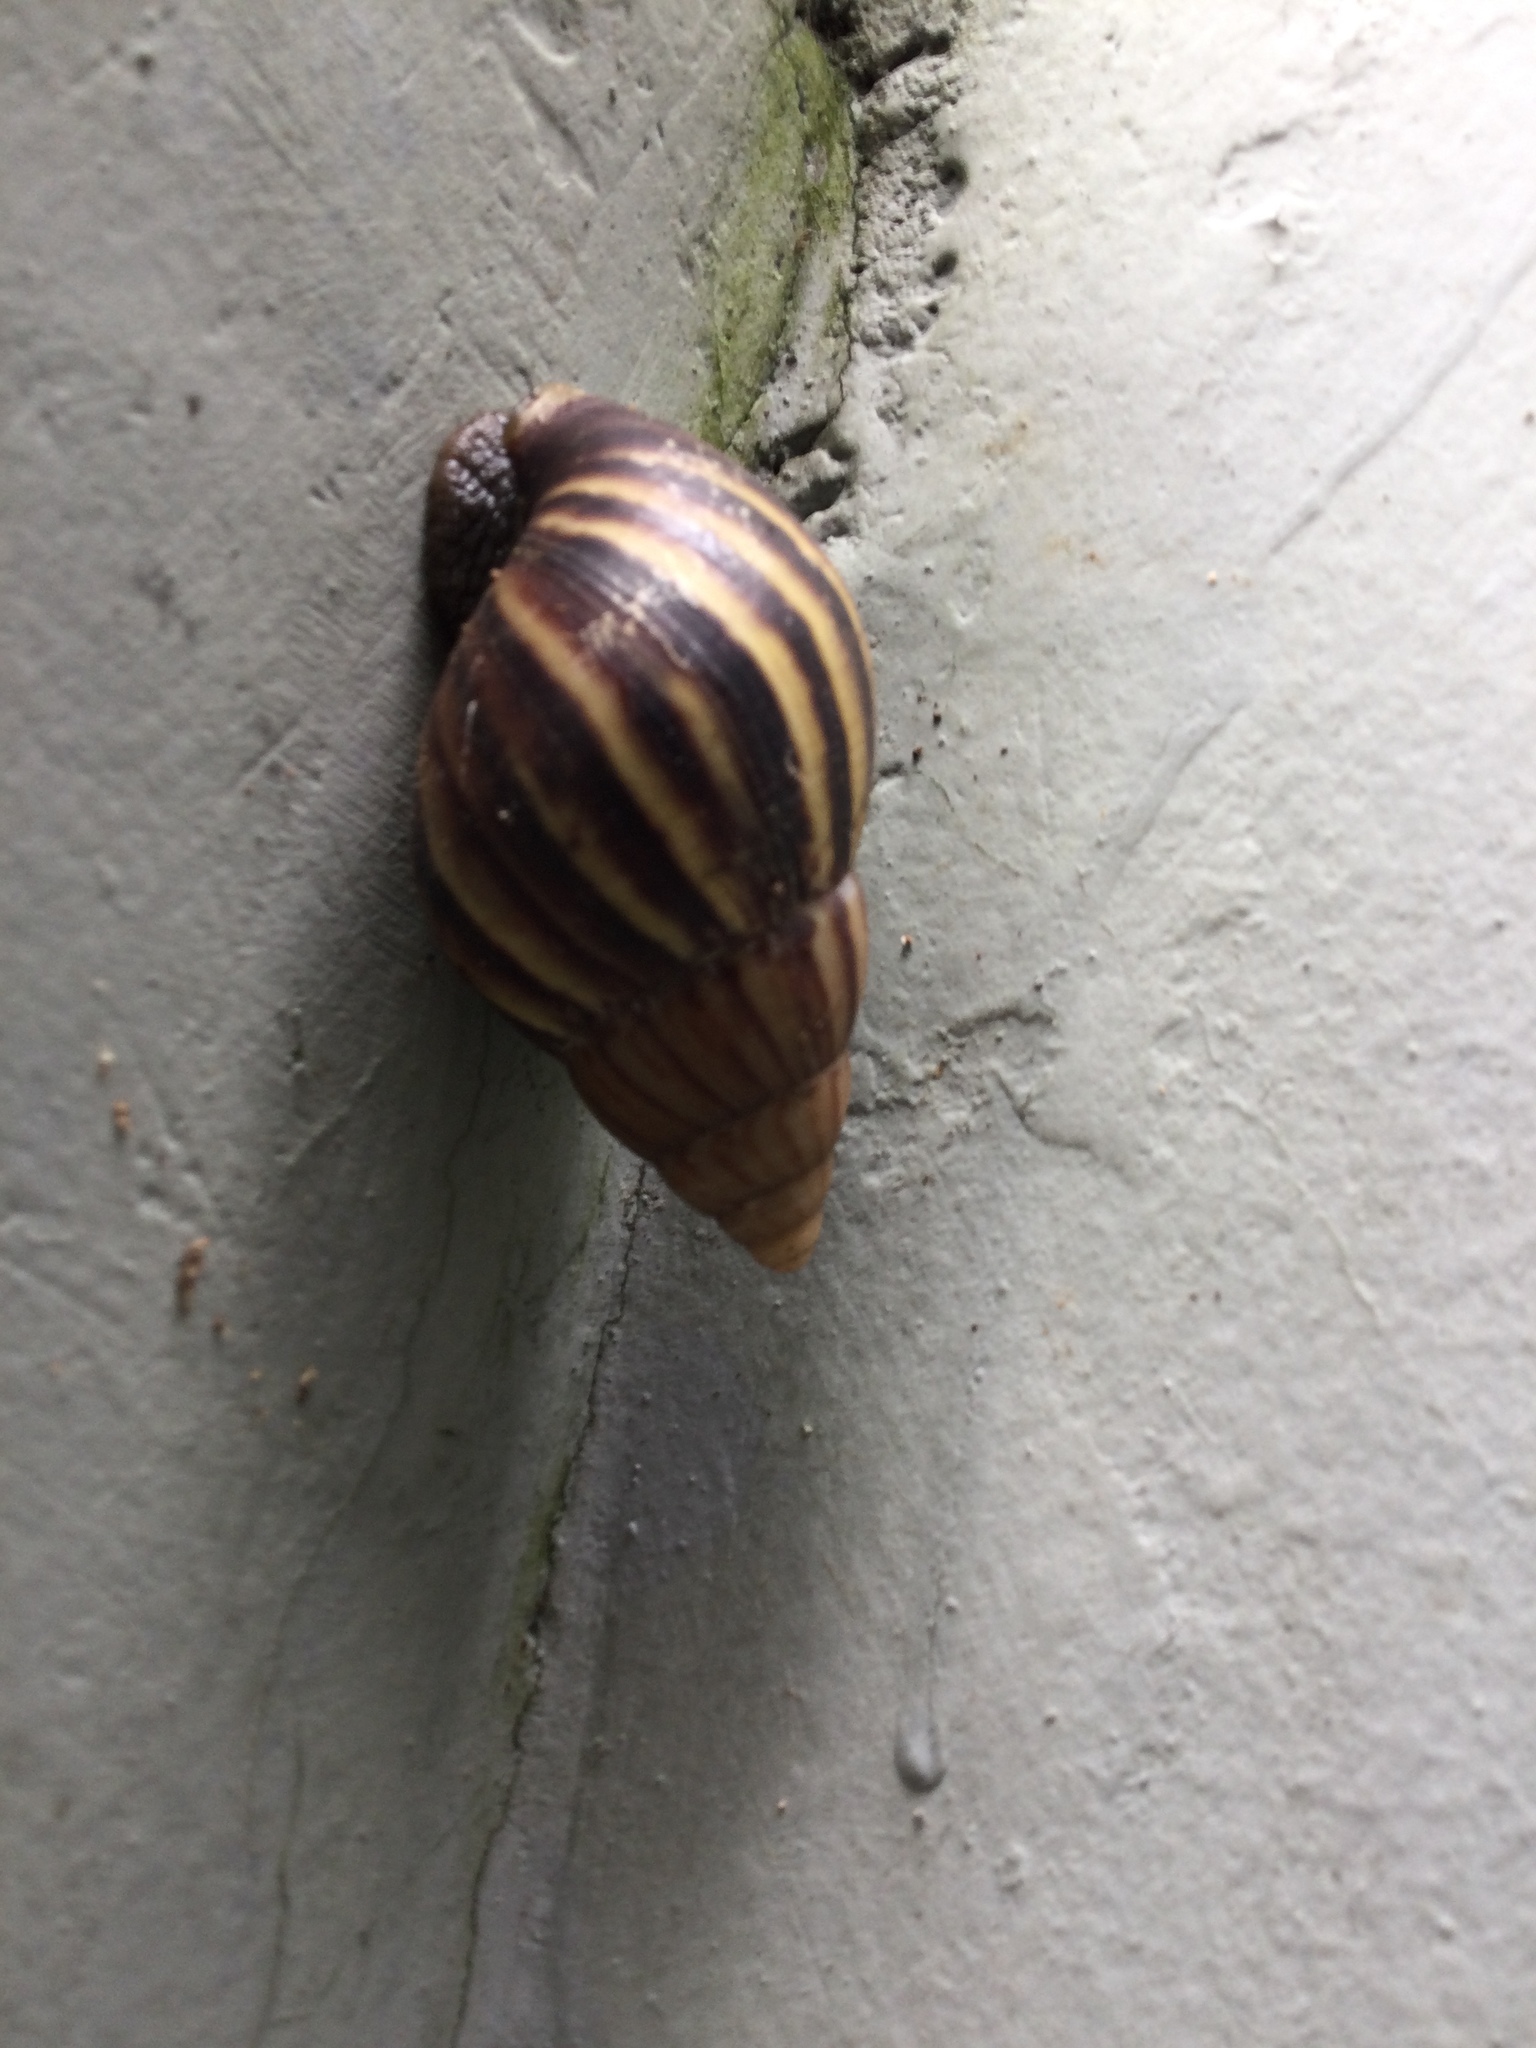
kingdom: Animalia
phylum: Mollusca
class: Gastropoda
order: Stylommatophora
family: Achatinidae
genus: Lissachatina
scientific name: Lissachatina fulica
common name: Giant african snail
